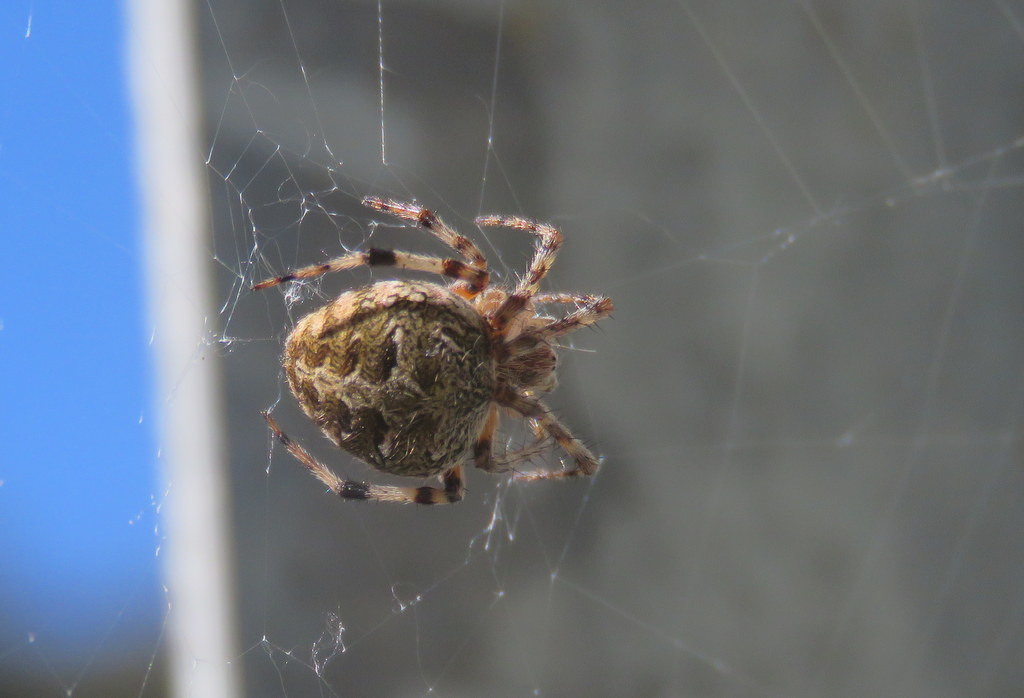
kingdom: Animalia
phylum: Arthropoda
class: Arachnida
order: Araneae
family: Araneidae
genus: Metepeira
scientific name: Metepeira
